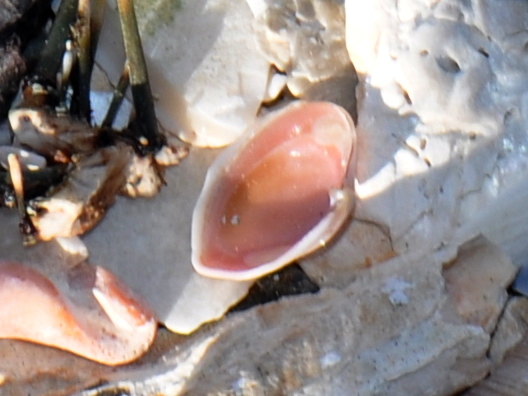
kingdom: Animalia
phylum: Mollusca
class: Bivalvia
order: Myida
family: Corbulidae
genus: Corbula
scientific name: Corbula zelandica
